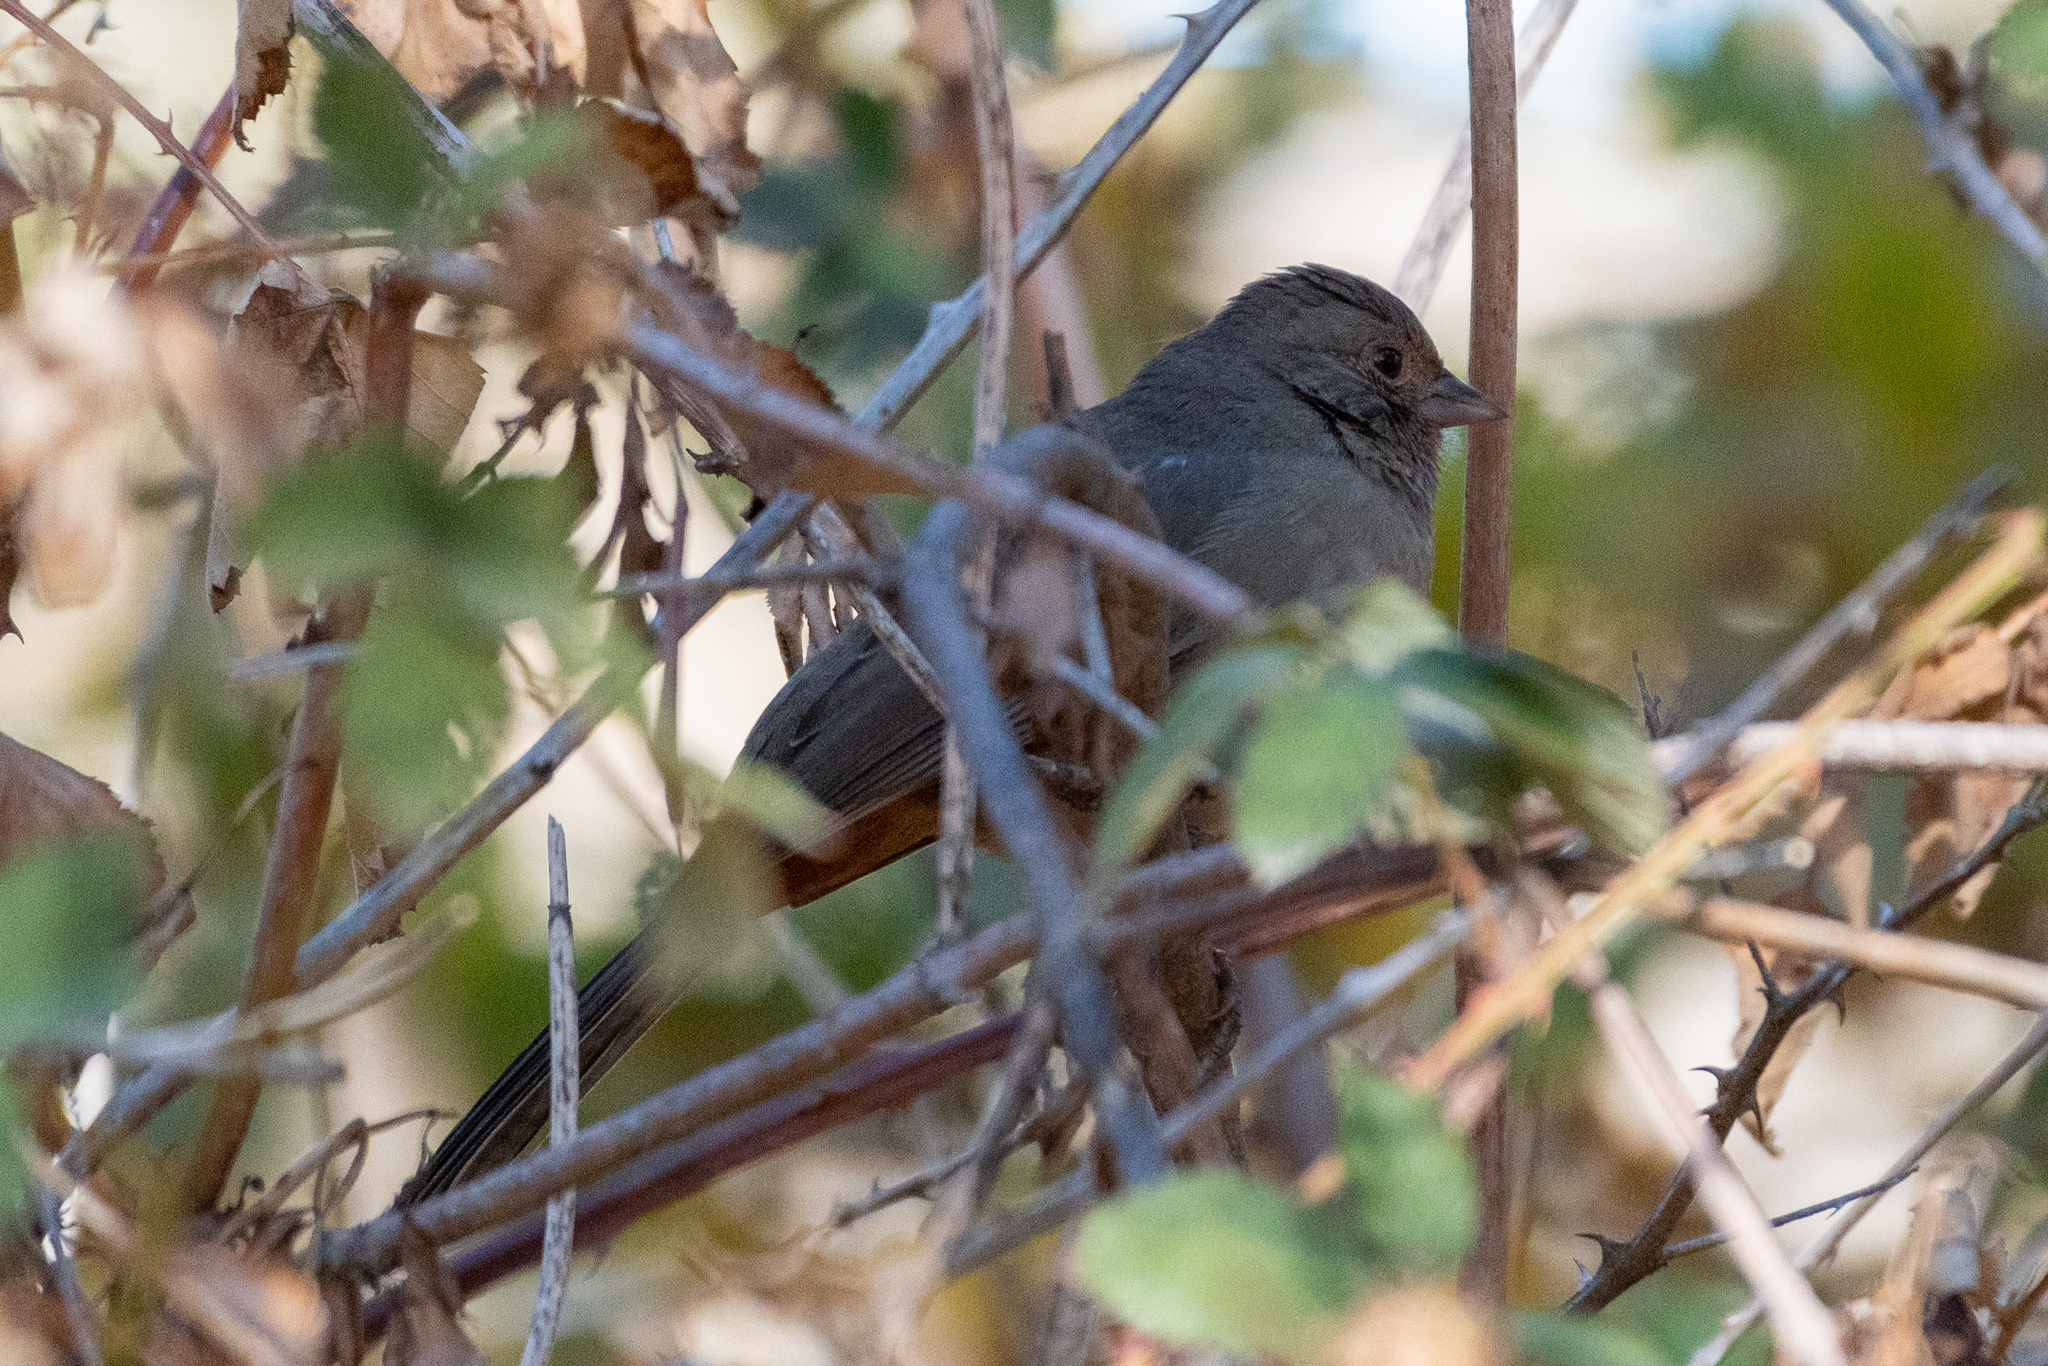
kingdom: Animalia
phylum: Chordata
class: Aves
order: Passeriformes
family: Passerellidae
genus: Melozone
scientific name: Melozone crissalis
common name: California towhee
